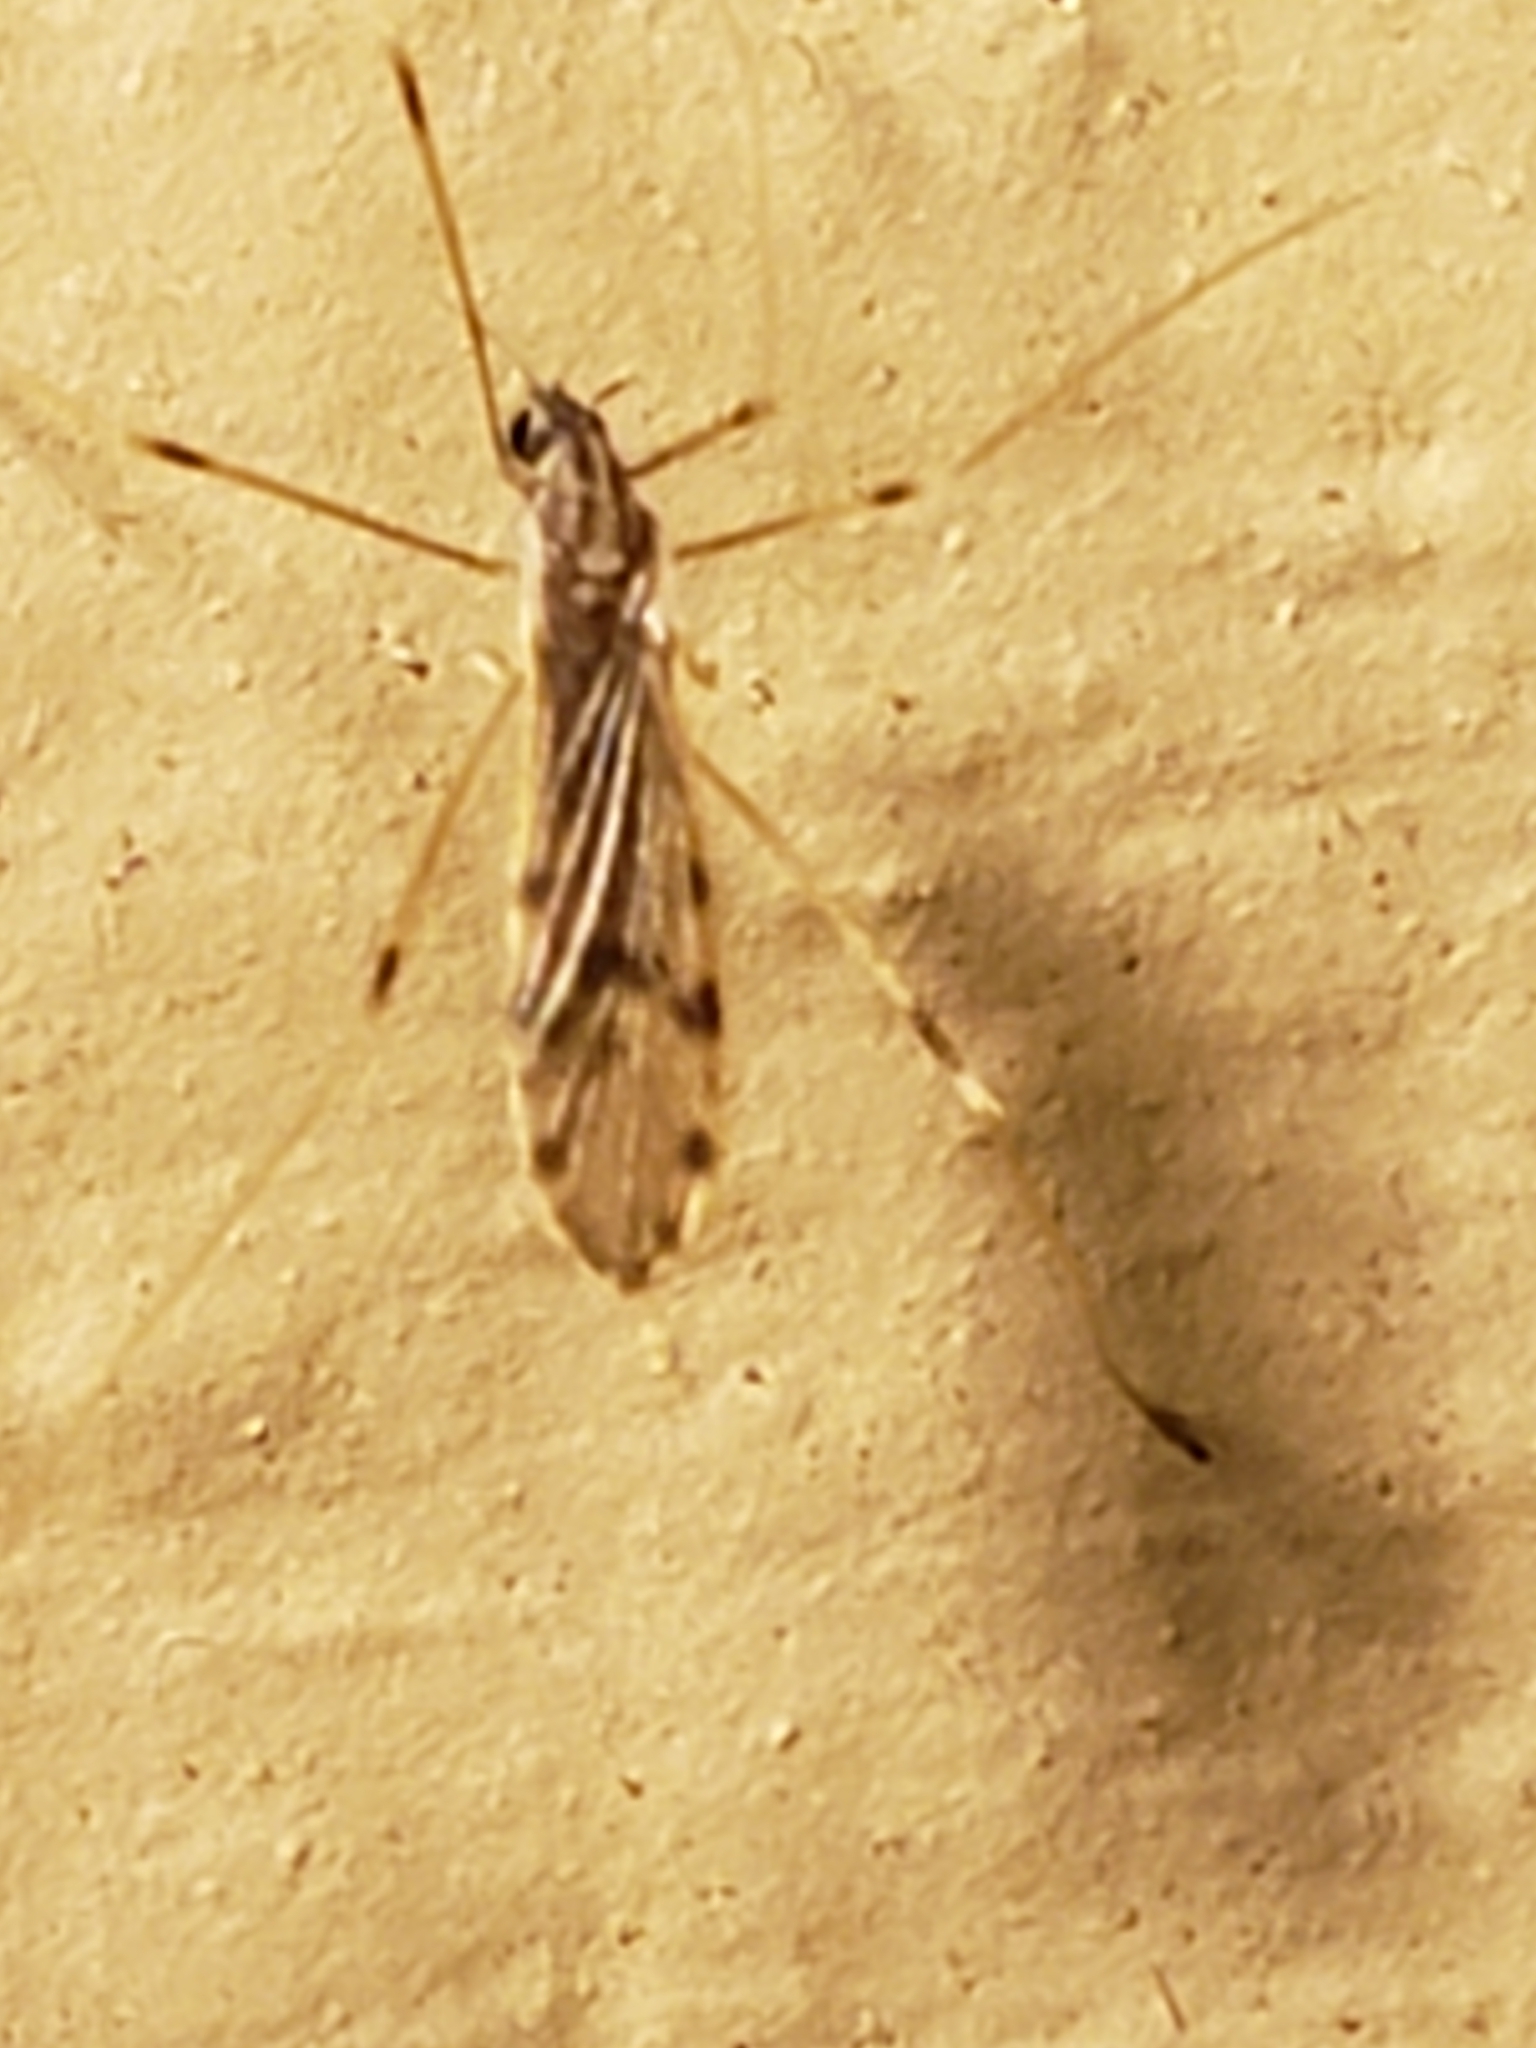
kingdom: Animalia
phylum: Arthropoda
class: Insecta
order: Diptera
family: Limoniidae
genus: Erioptera
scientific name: Erioptera parva
